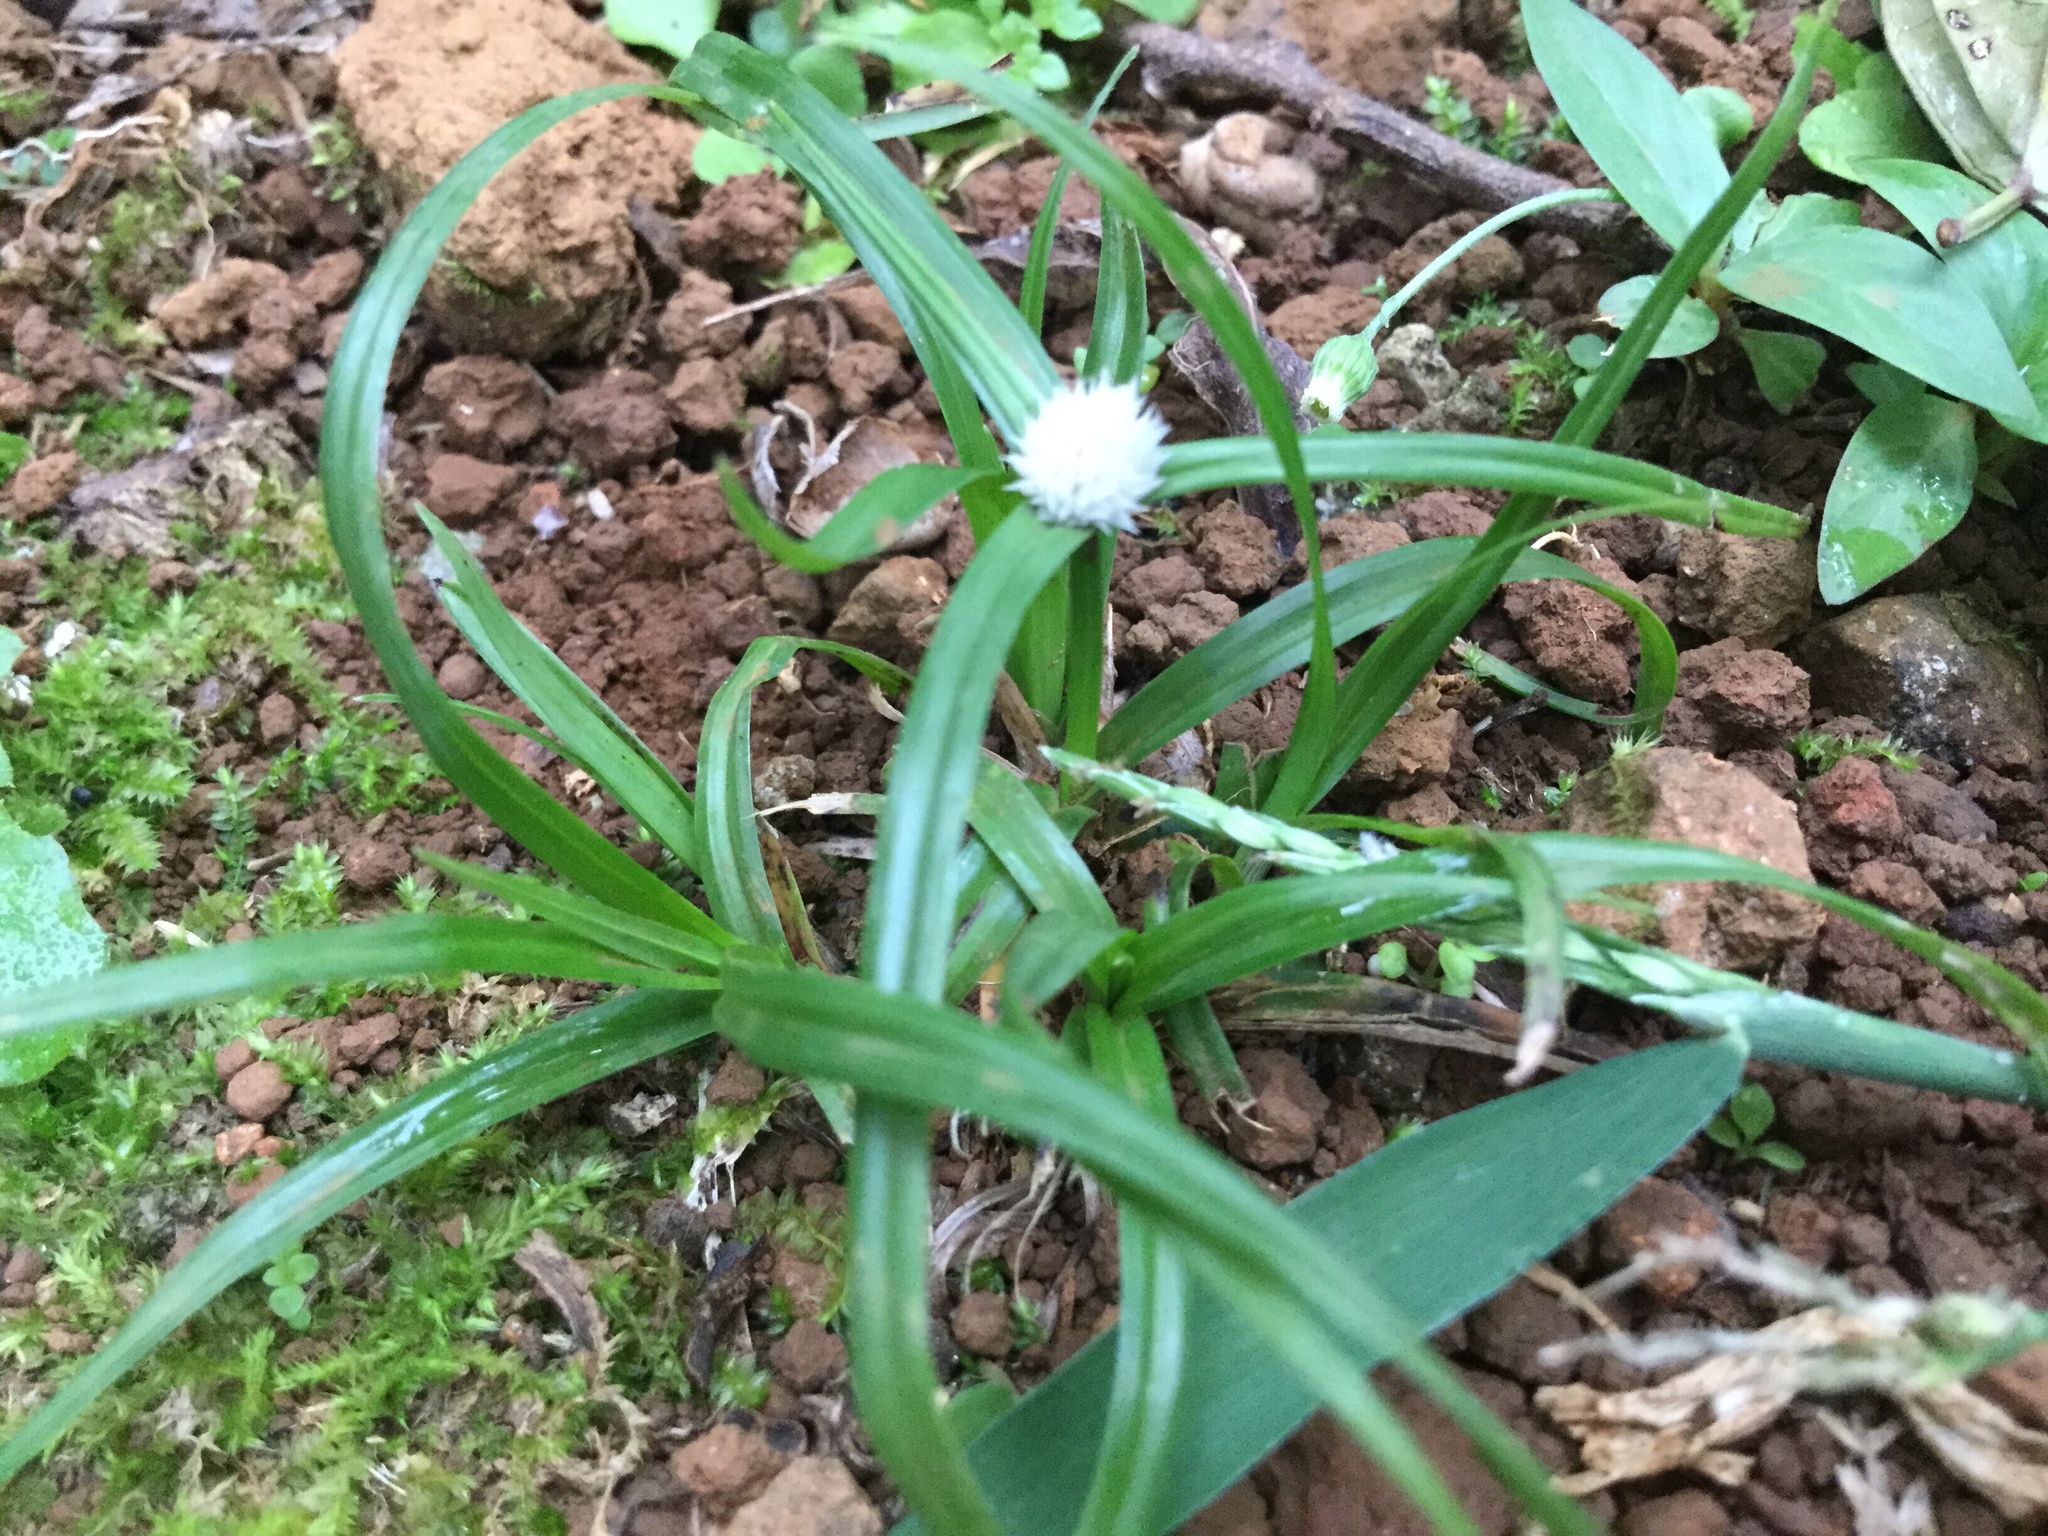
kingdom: Plantae
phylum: Tracheophyta
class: Liliopsida
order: Poales
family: Cyperaceae
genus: Cyperus
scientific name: Cyperus mindorensis
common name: Flatsedge
